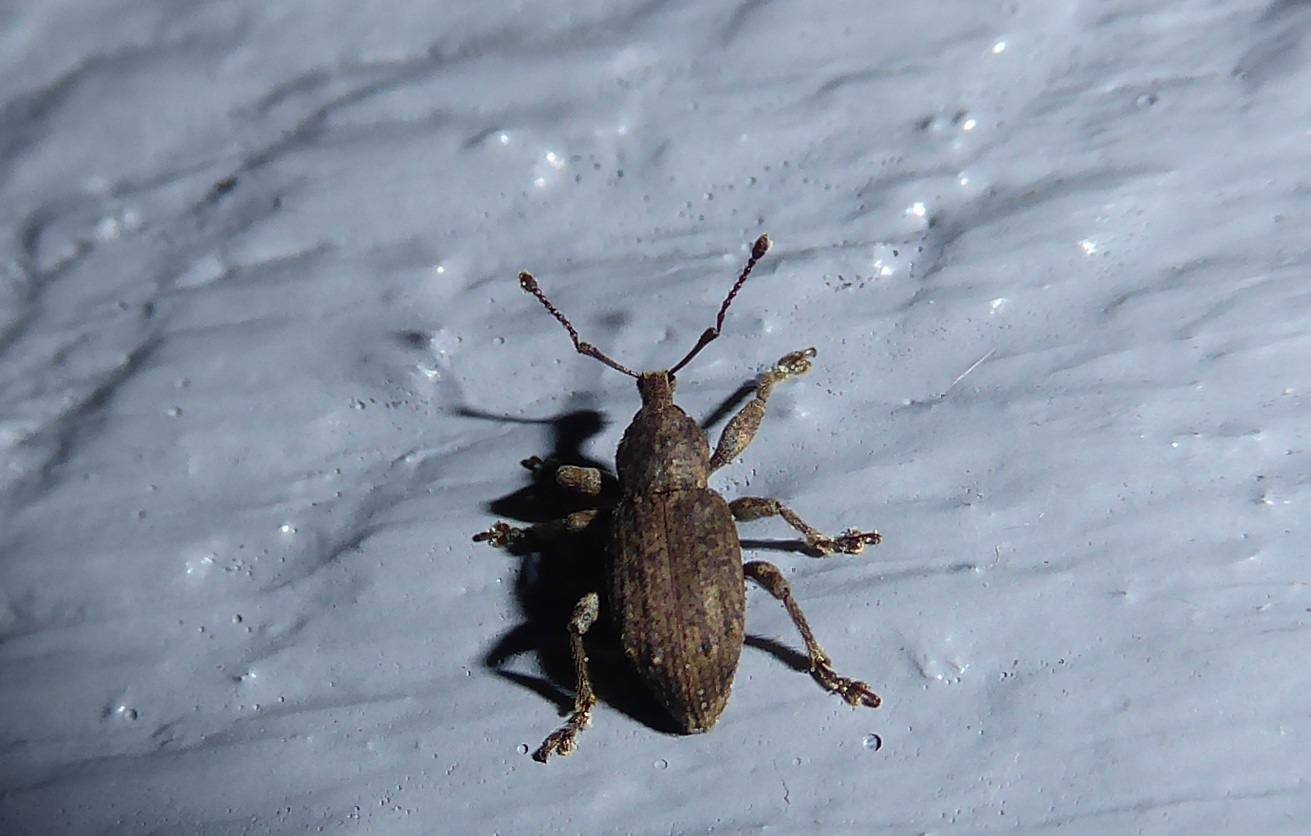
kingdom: Animalia
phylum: Arthropoda
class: Insecta
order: Coleoptera
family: Curculionidae
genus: Chalepistes
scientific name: Chalepistes rubidus
